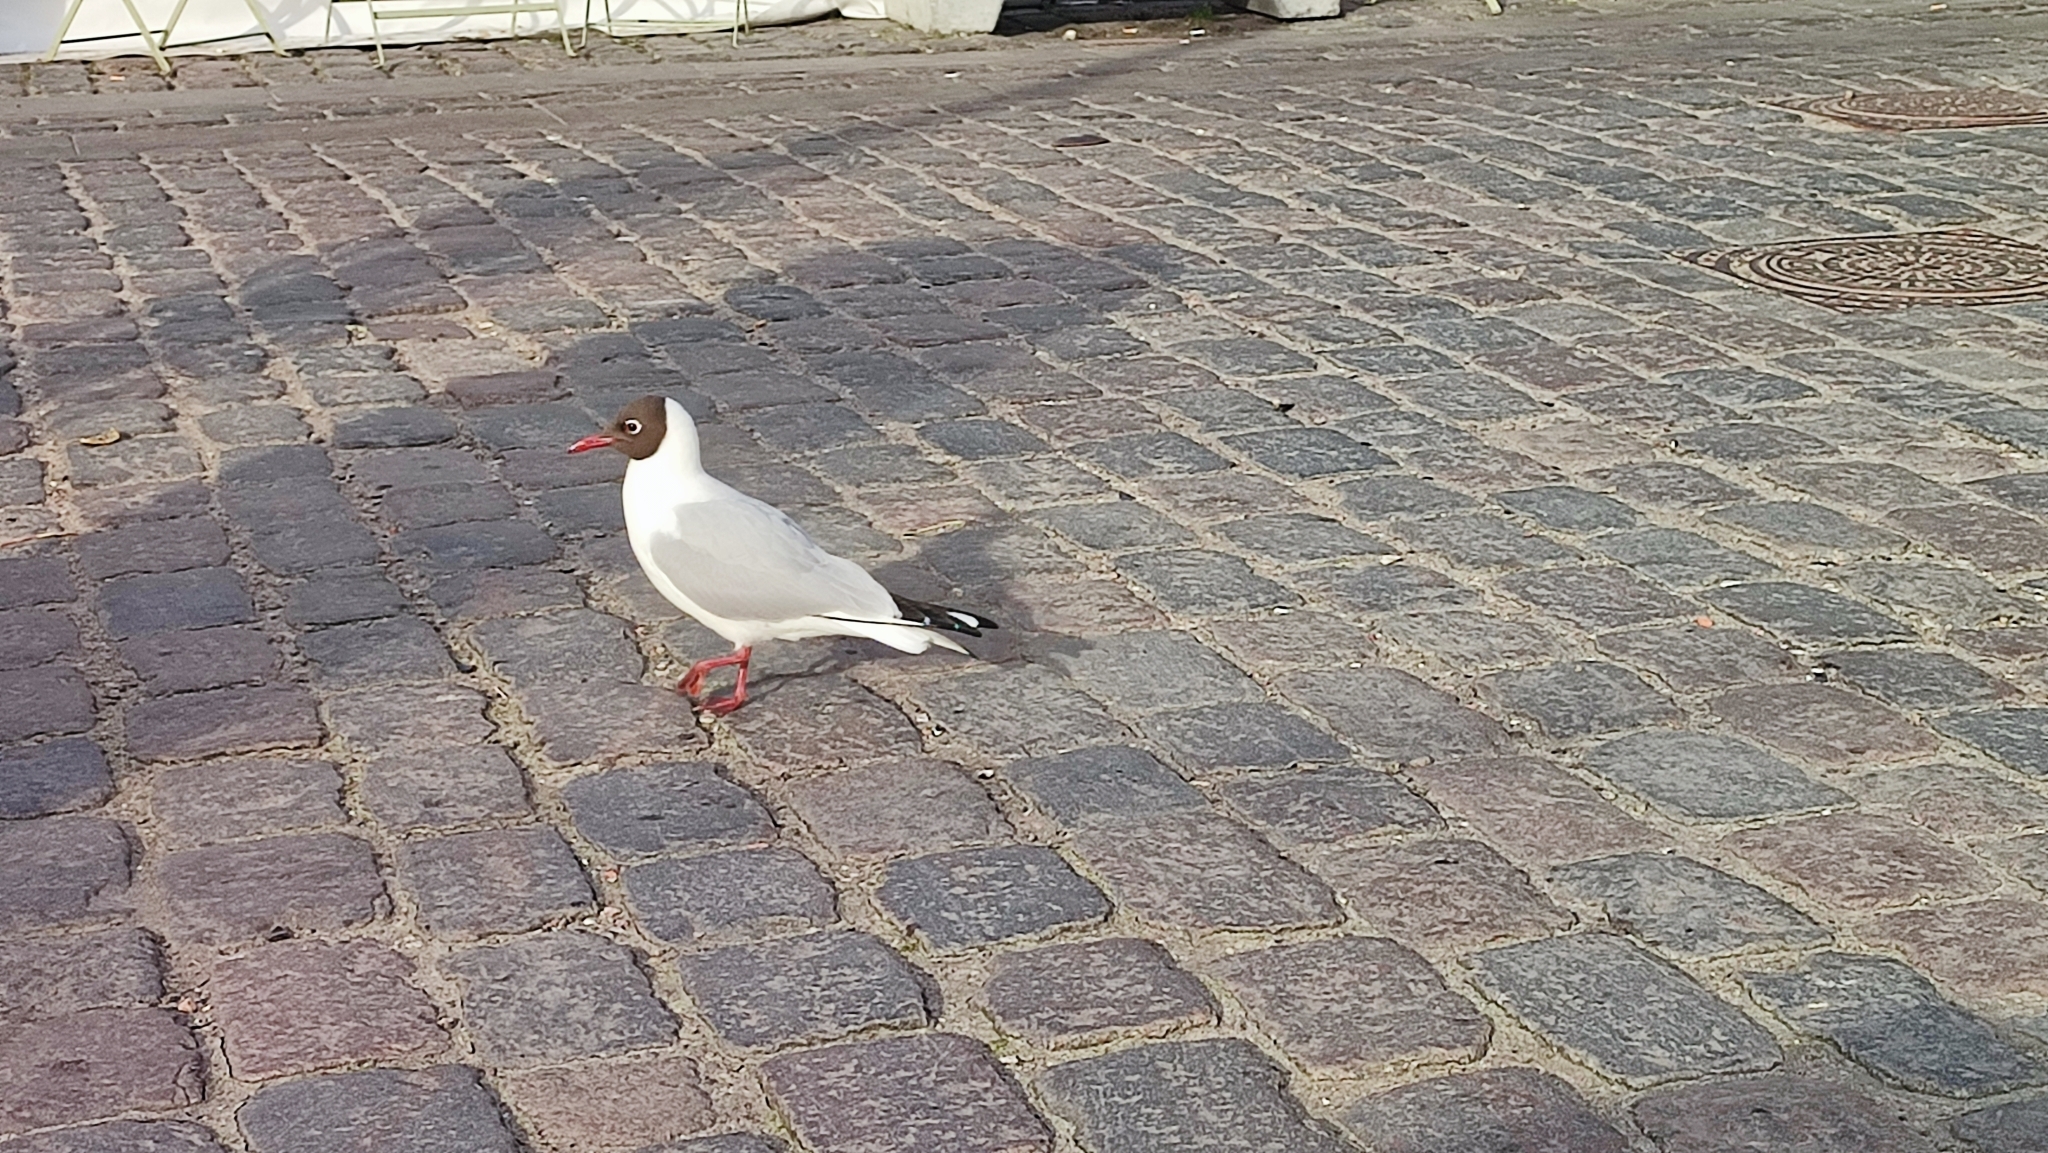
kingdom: Animalia
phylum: Chordata
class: Aves
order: Charadriiformes
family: Laridae
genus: Chroicocephalus
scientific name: Chroicocephalus ridibundus
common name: Black-headed gull
